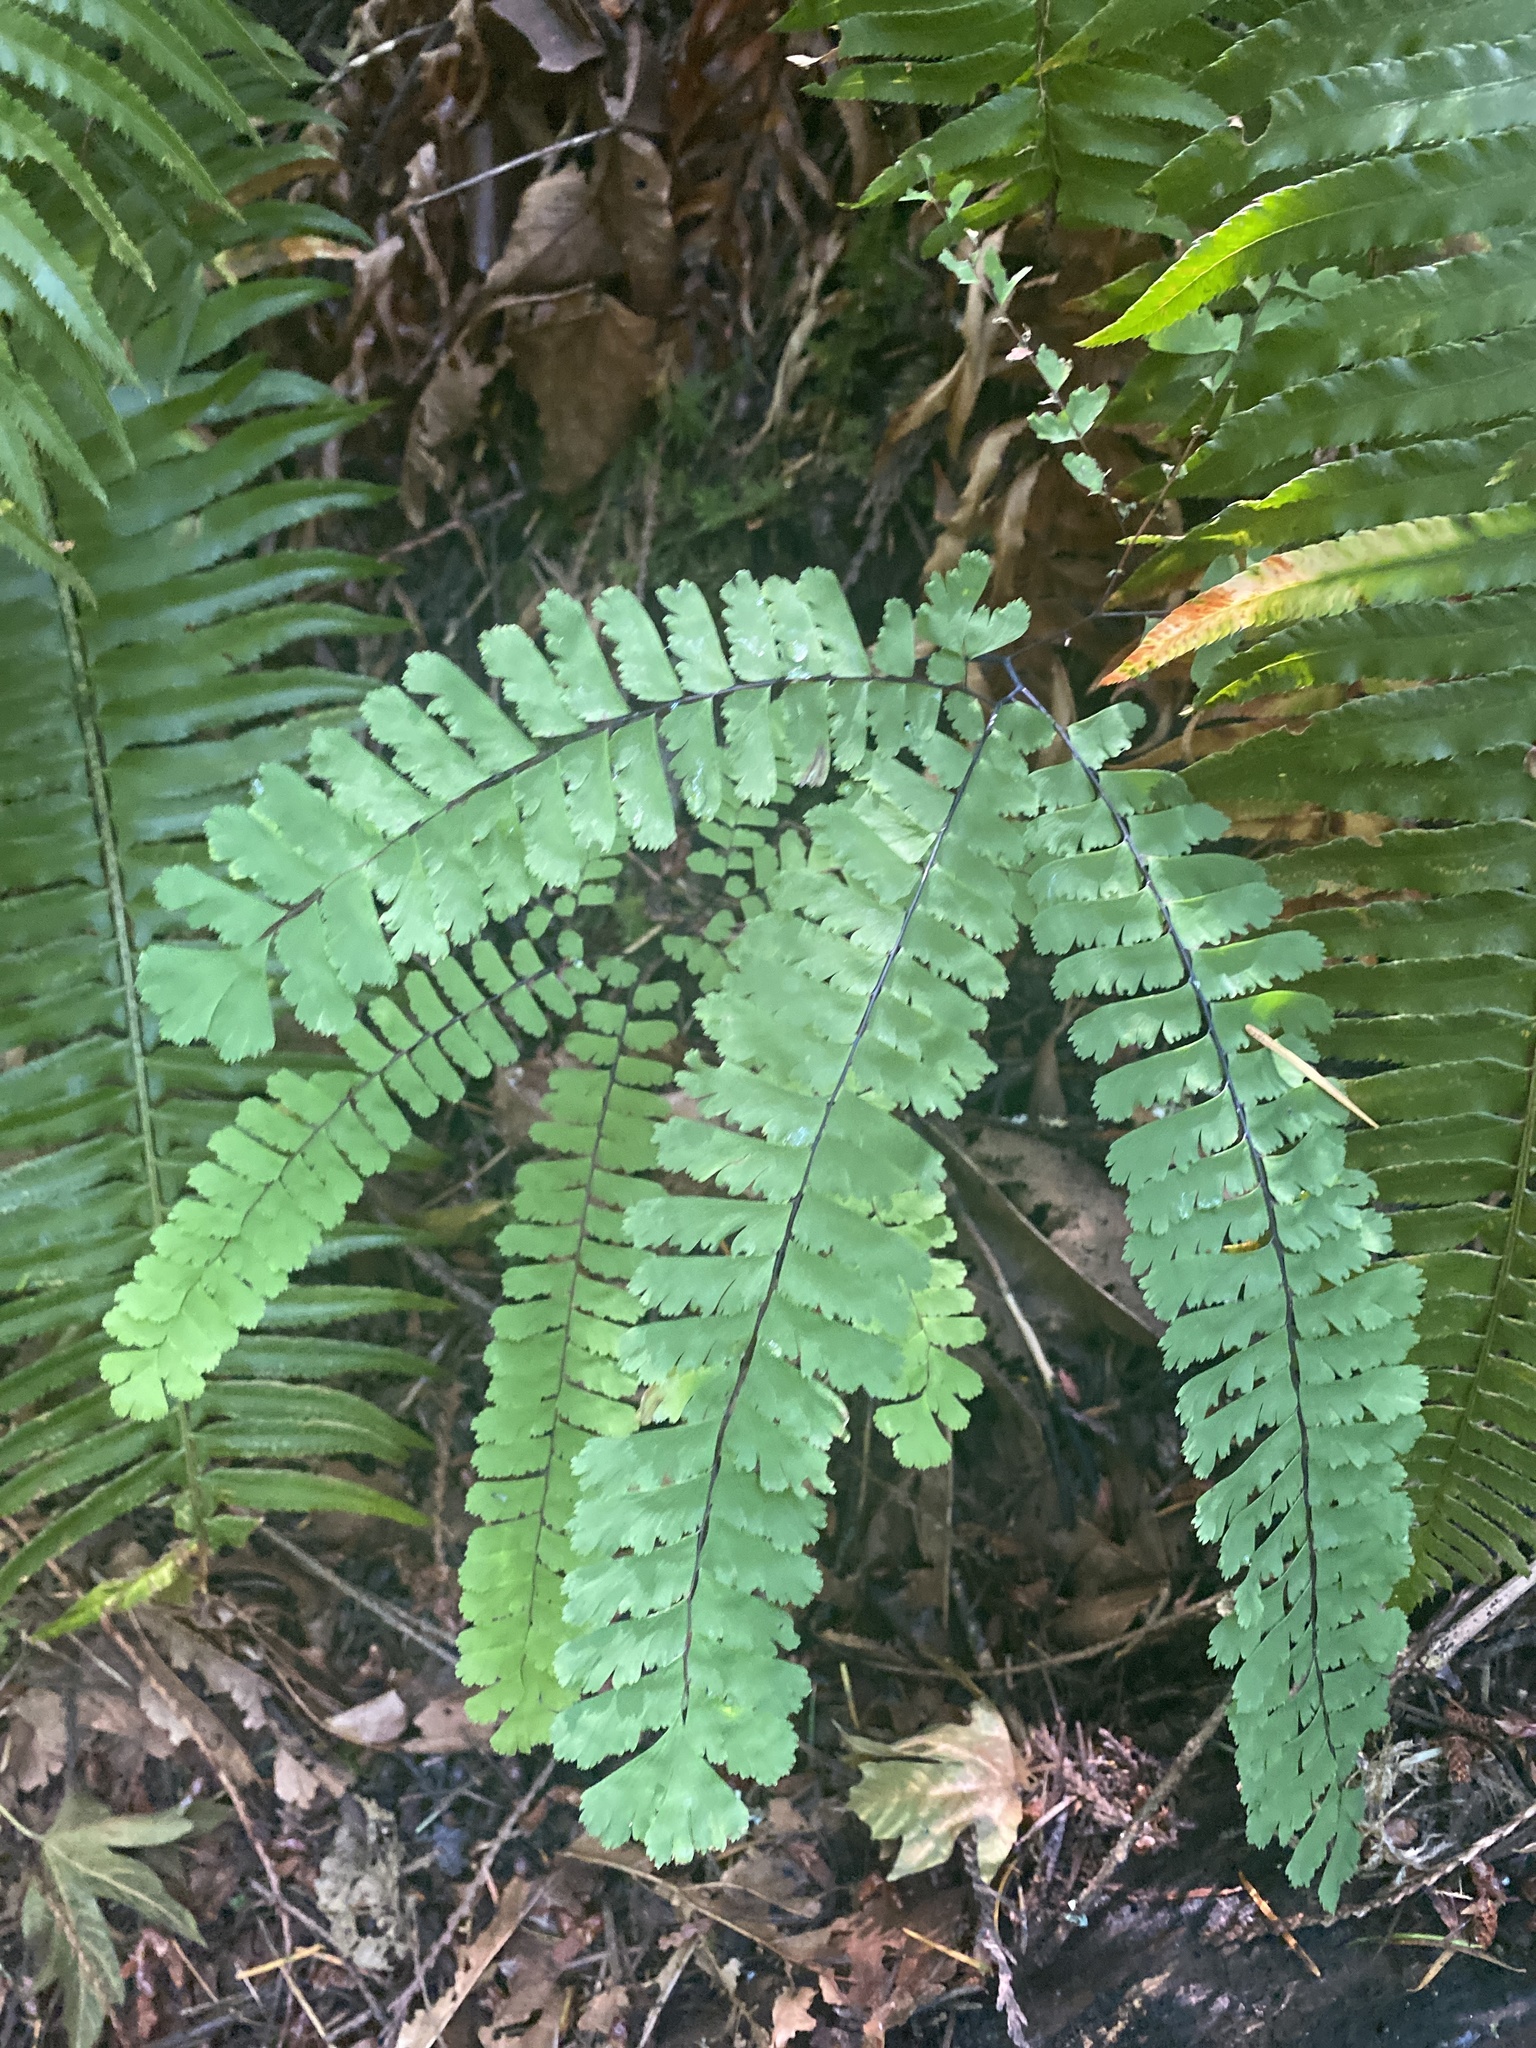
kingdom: Plantae
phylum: Tracheophyta
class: Polypodiopsida
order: Polypodiales
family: Pteridaceae
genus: Adiantum
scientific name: Adiantum aleuticum
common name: Aleutian maidenhair fern
